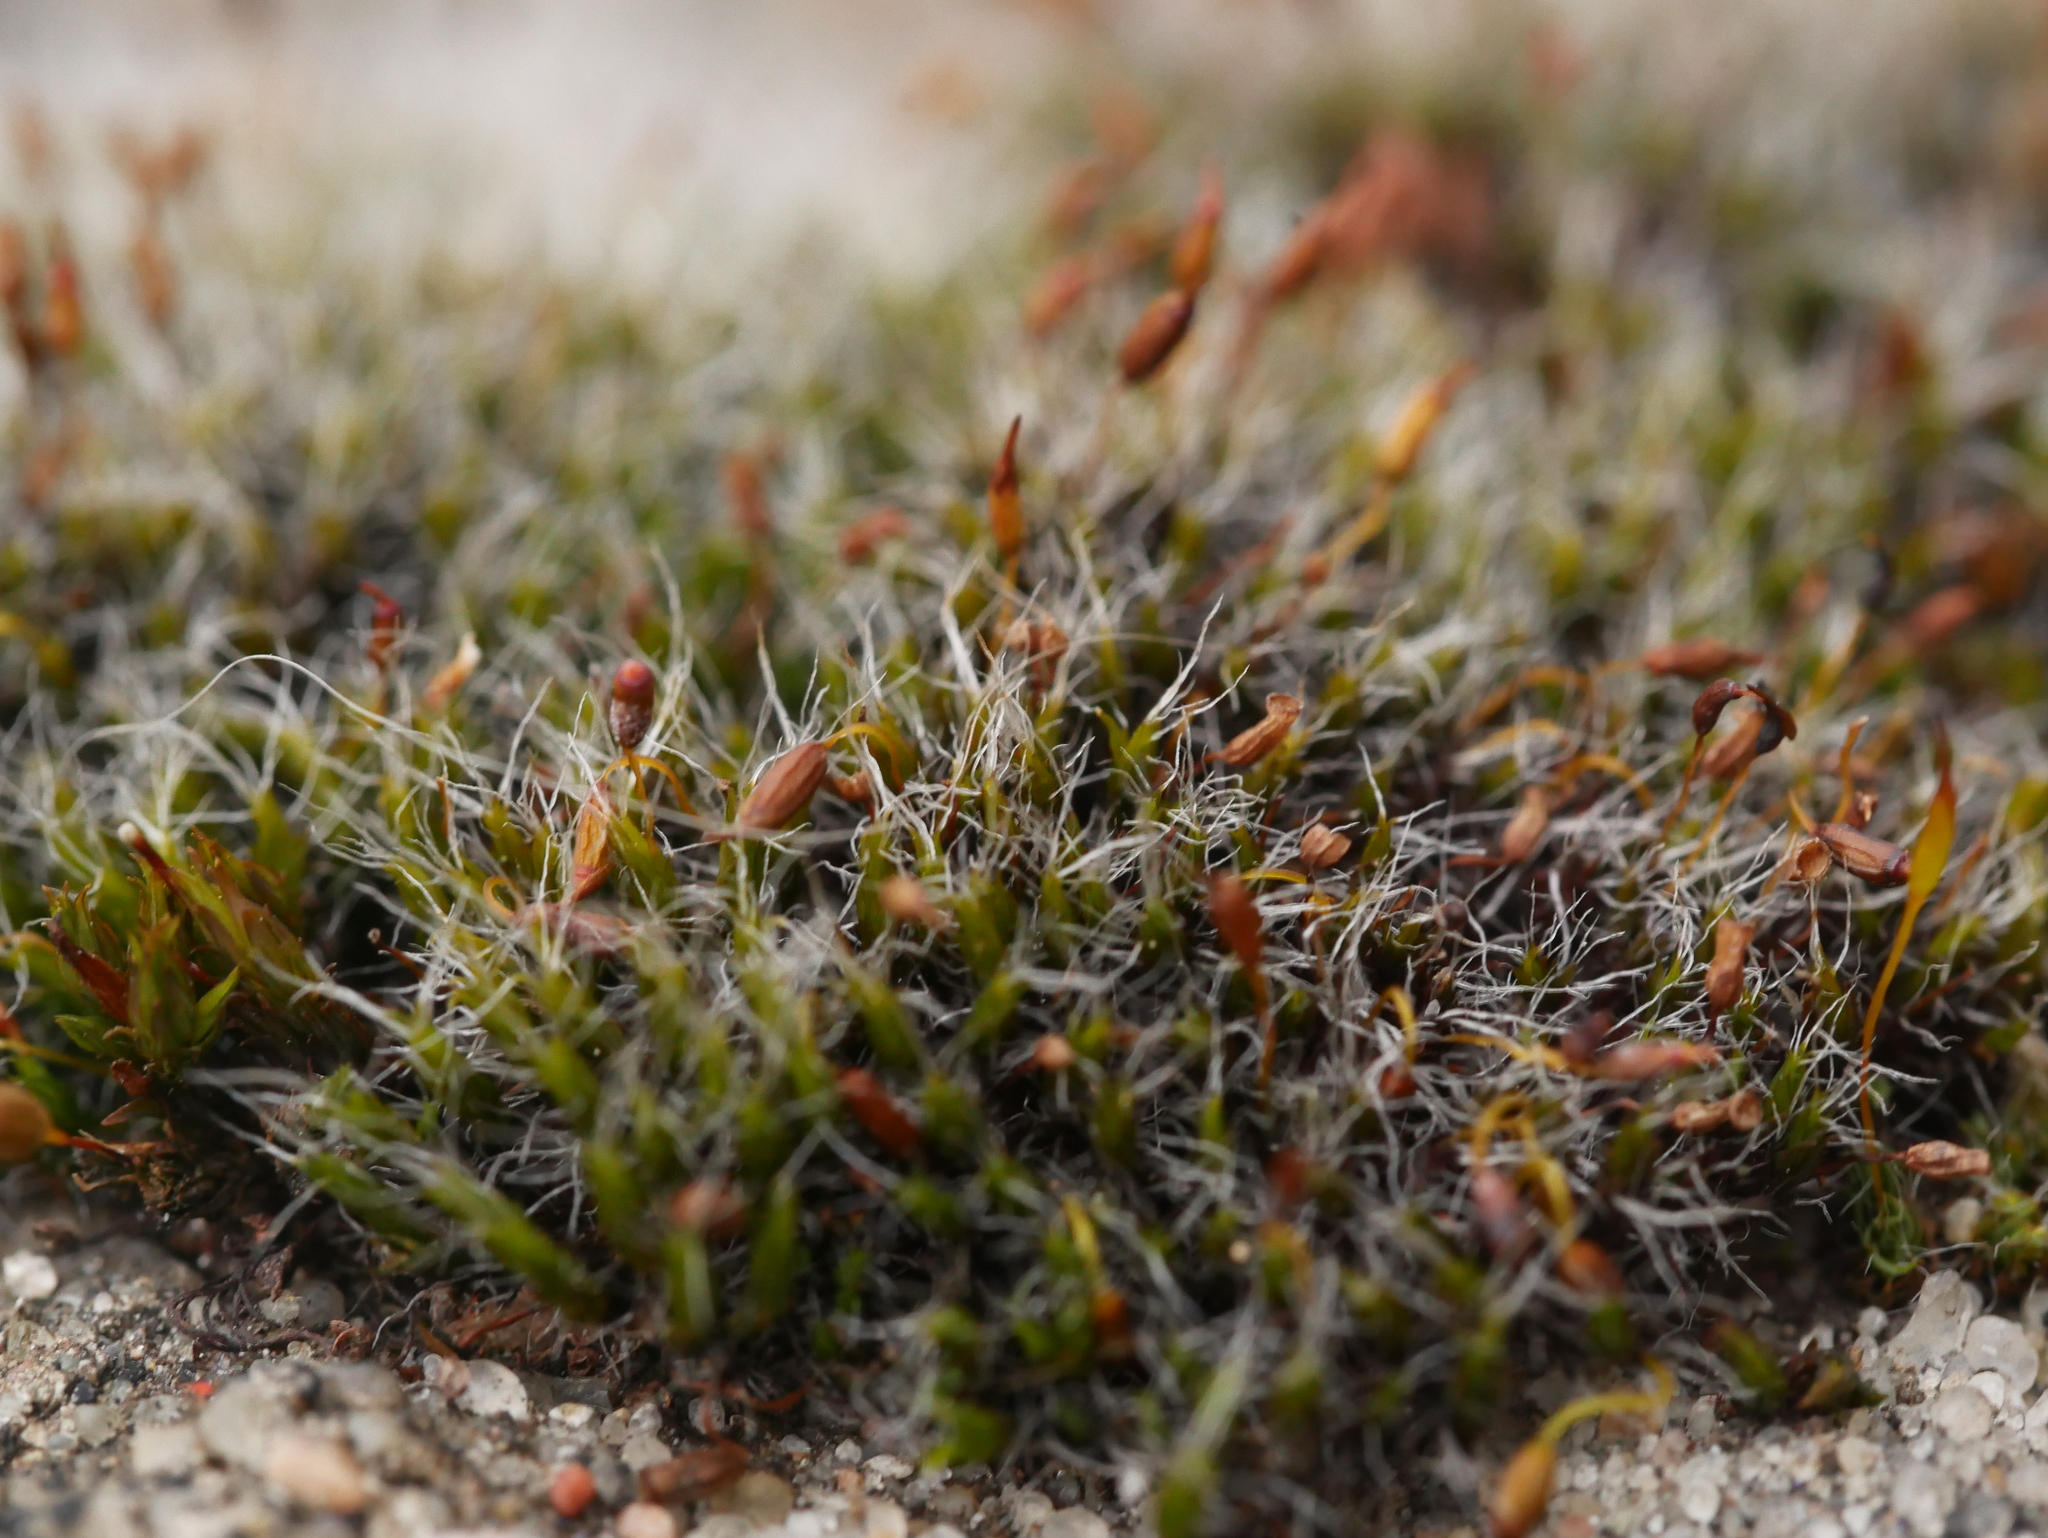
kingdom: Plantae
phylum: Bryophyta
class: Bryopsida
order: Grimmiales
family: Grimmiaceae
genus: Grimmia
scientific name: Grimmia pulvinata
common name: Grey-cushioned grimmia
